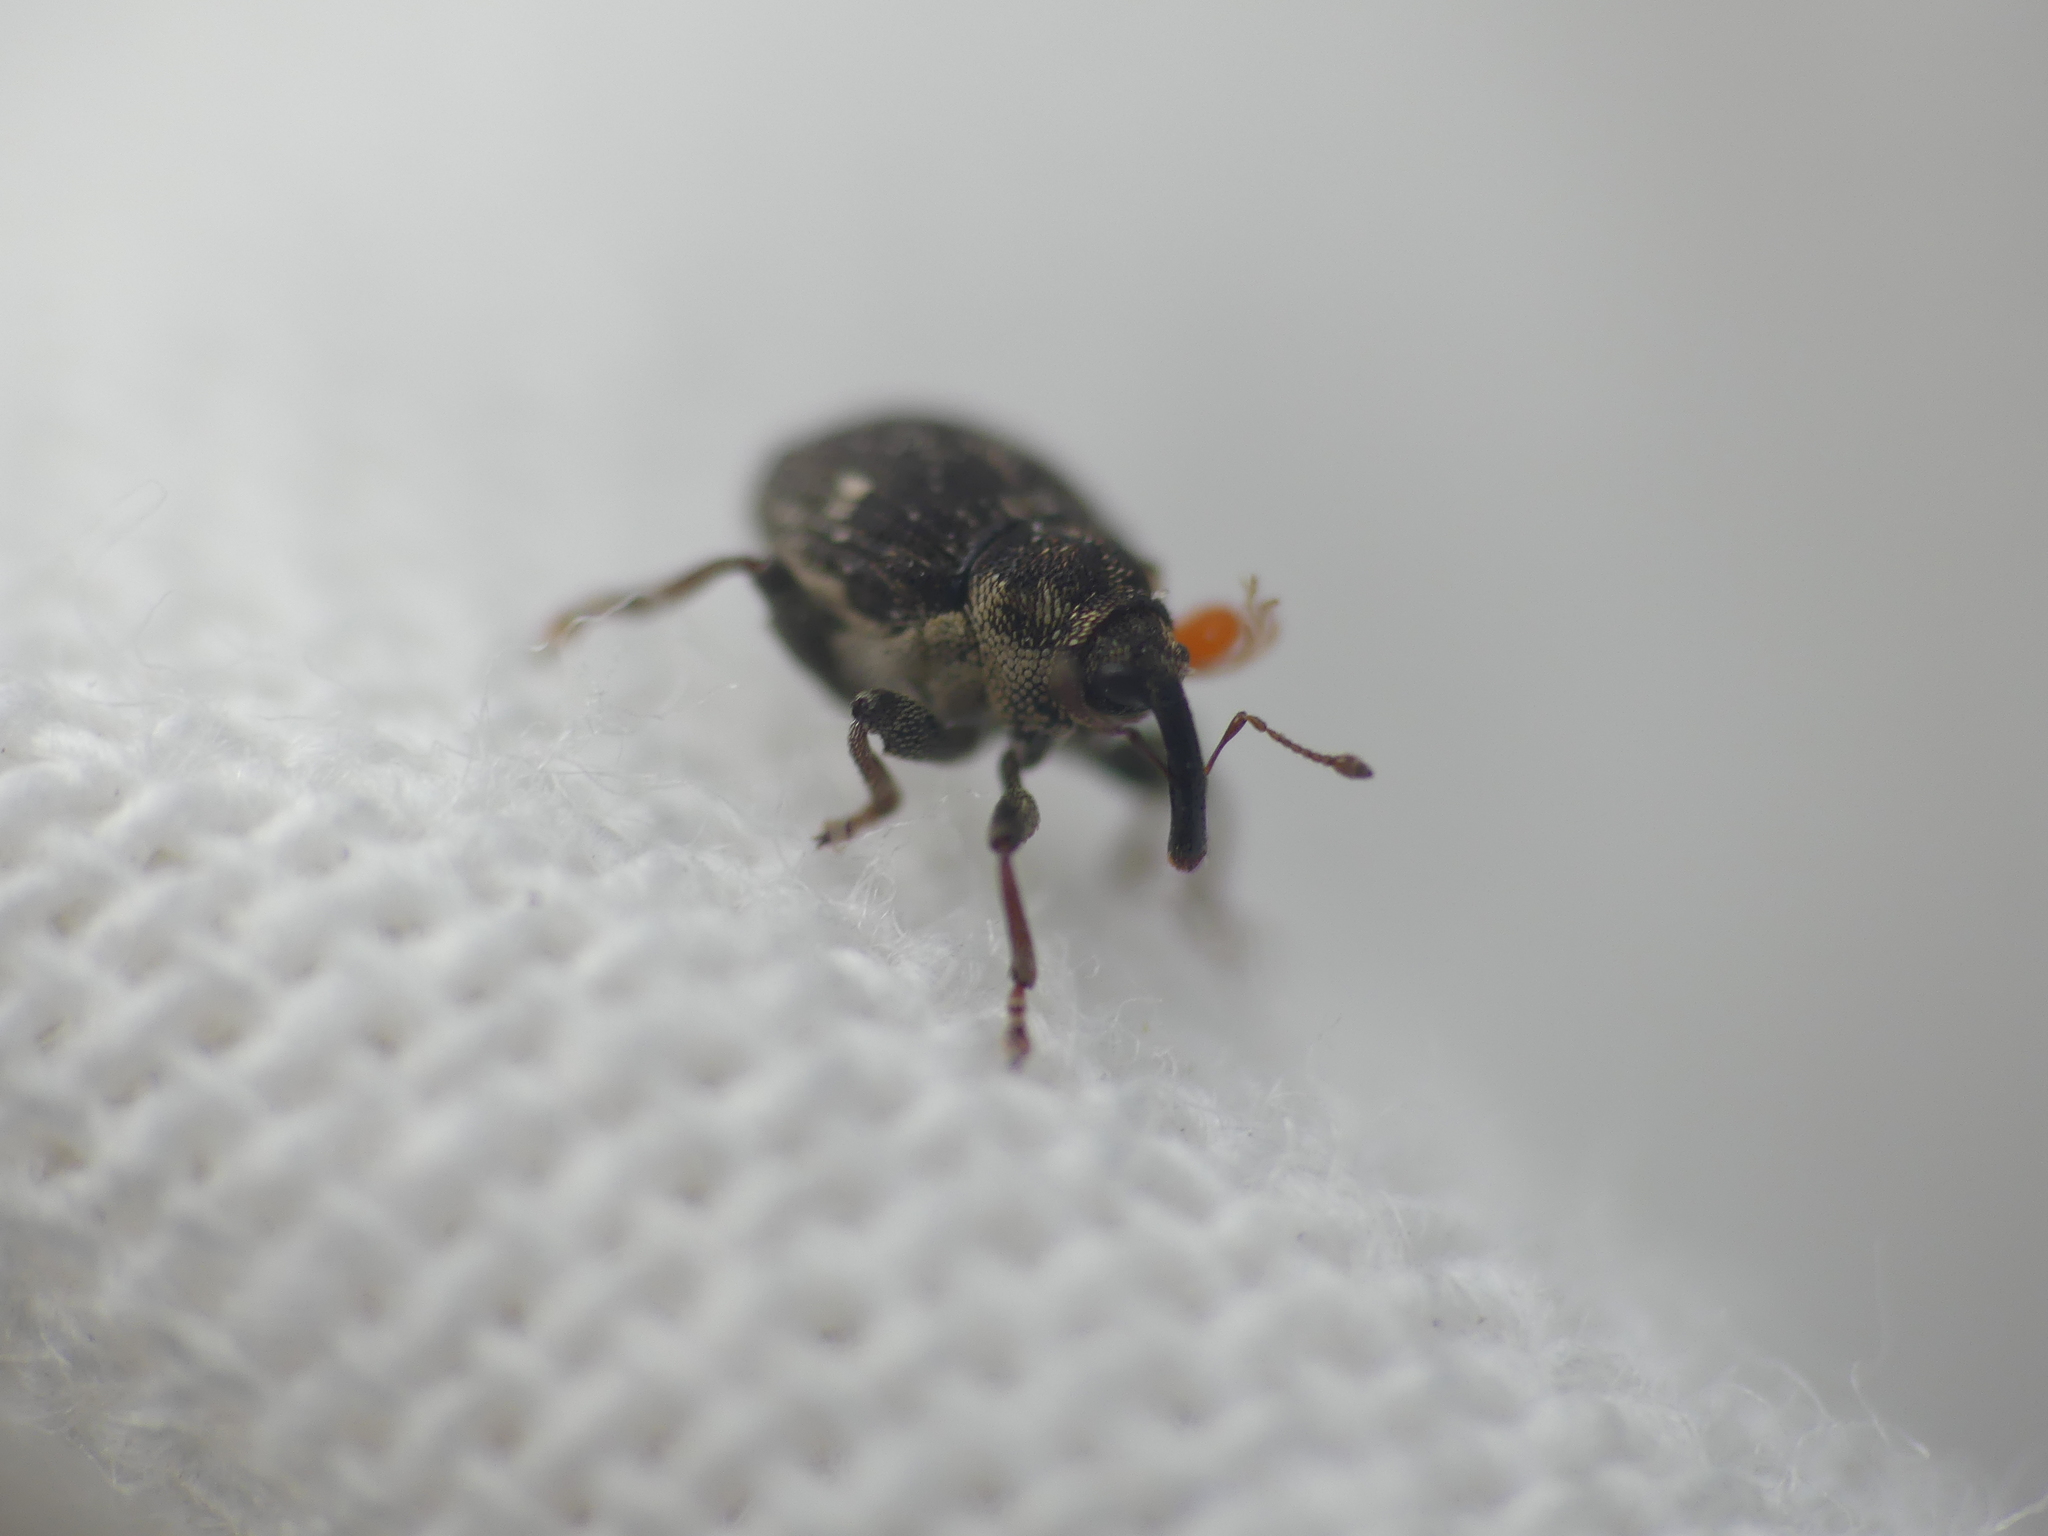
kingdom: Animalia
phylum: Arthropoda
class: Insecta
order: Coleoptera
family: Curculionidae
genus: Nedyus
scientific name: Nedyus quadrimaculatus
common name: Small nettle weevil
